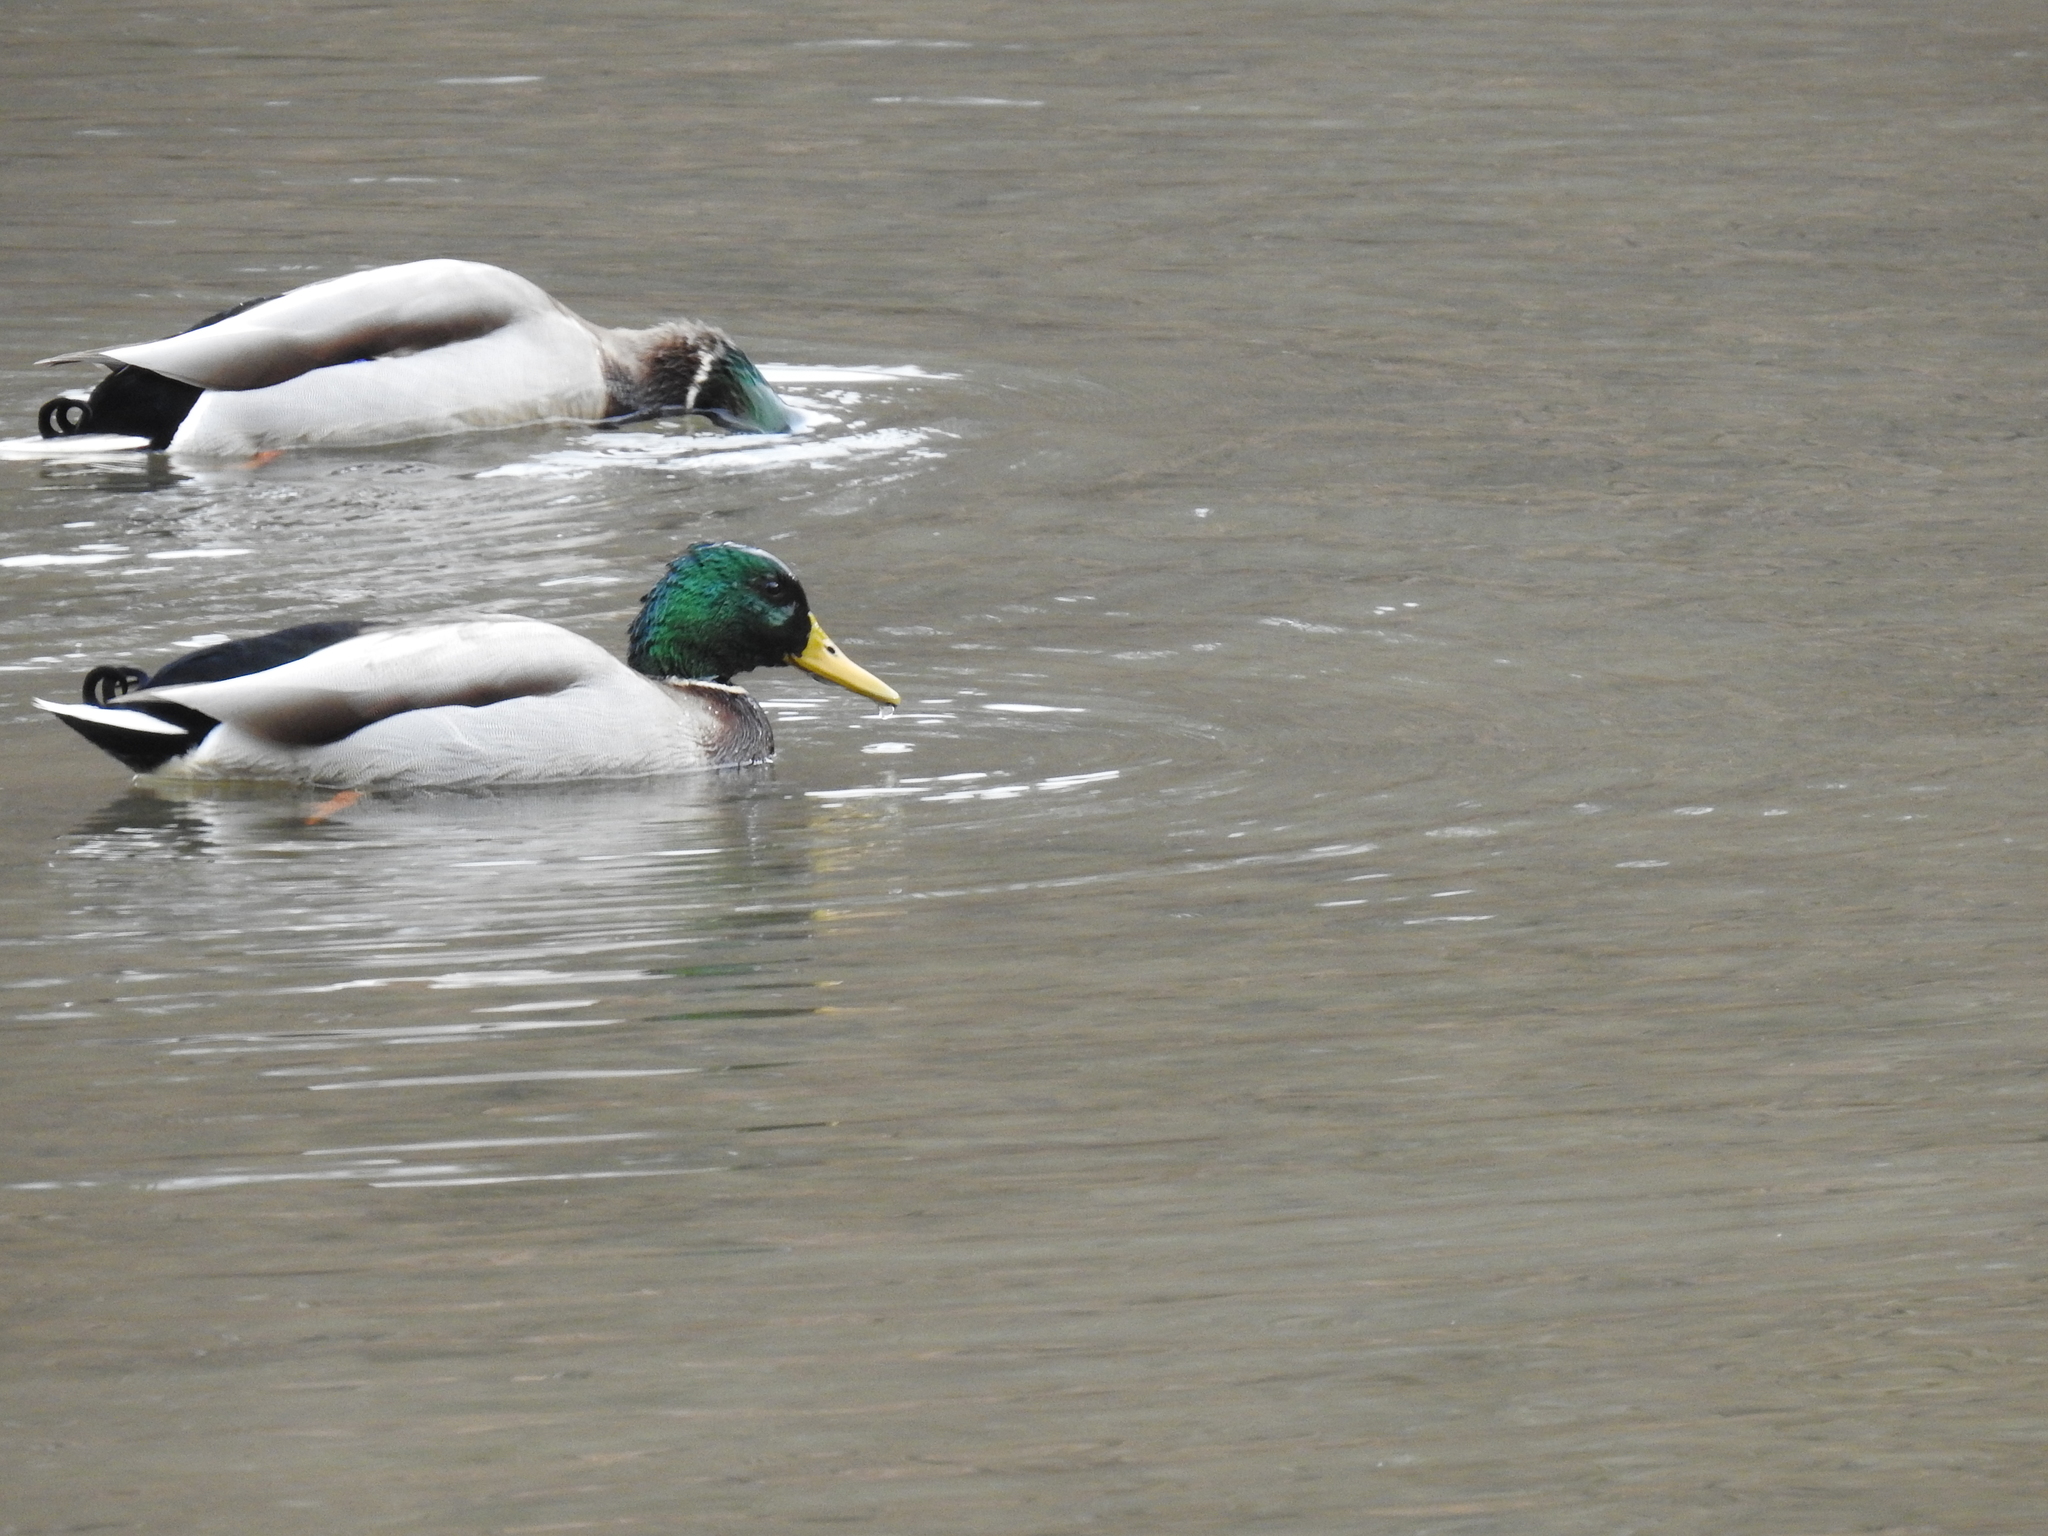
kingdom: Animalia
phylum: Chordata
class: Aves
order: Anseriformes
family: Anatidae
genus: Anas
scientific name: Anas platyrhynchos
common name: Mallard
